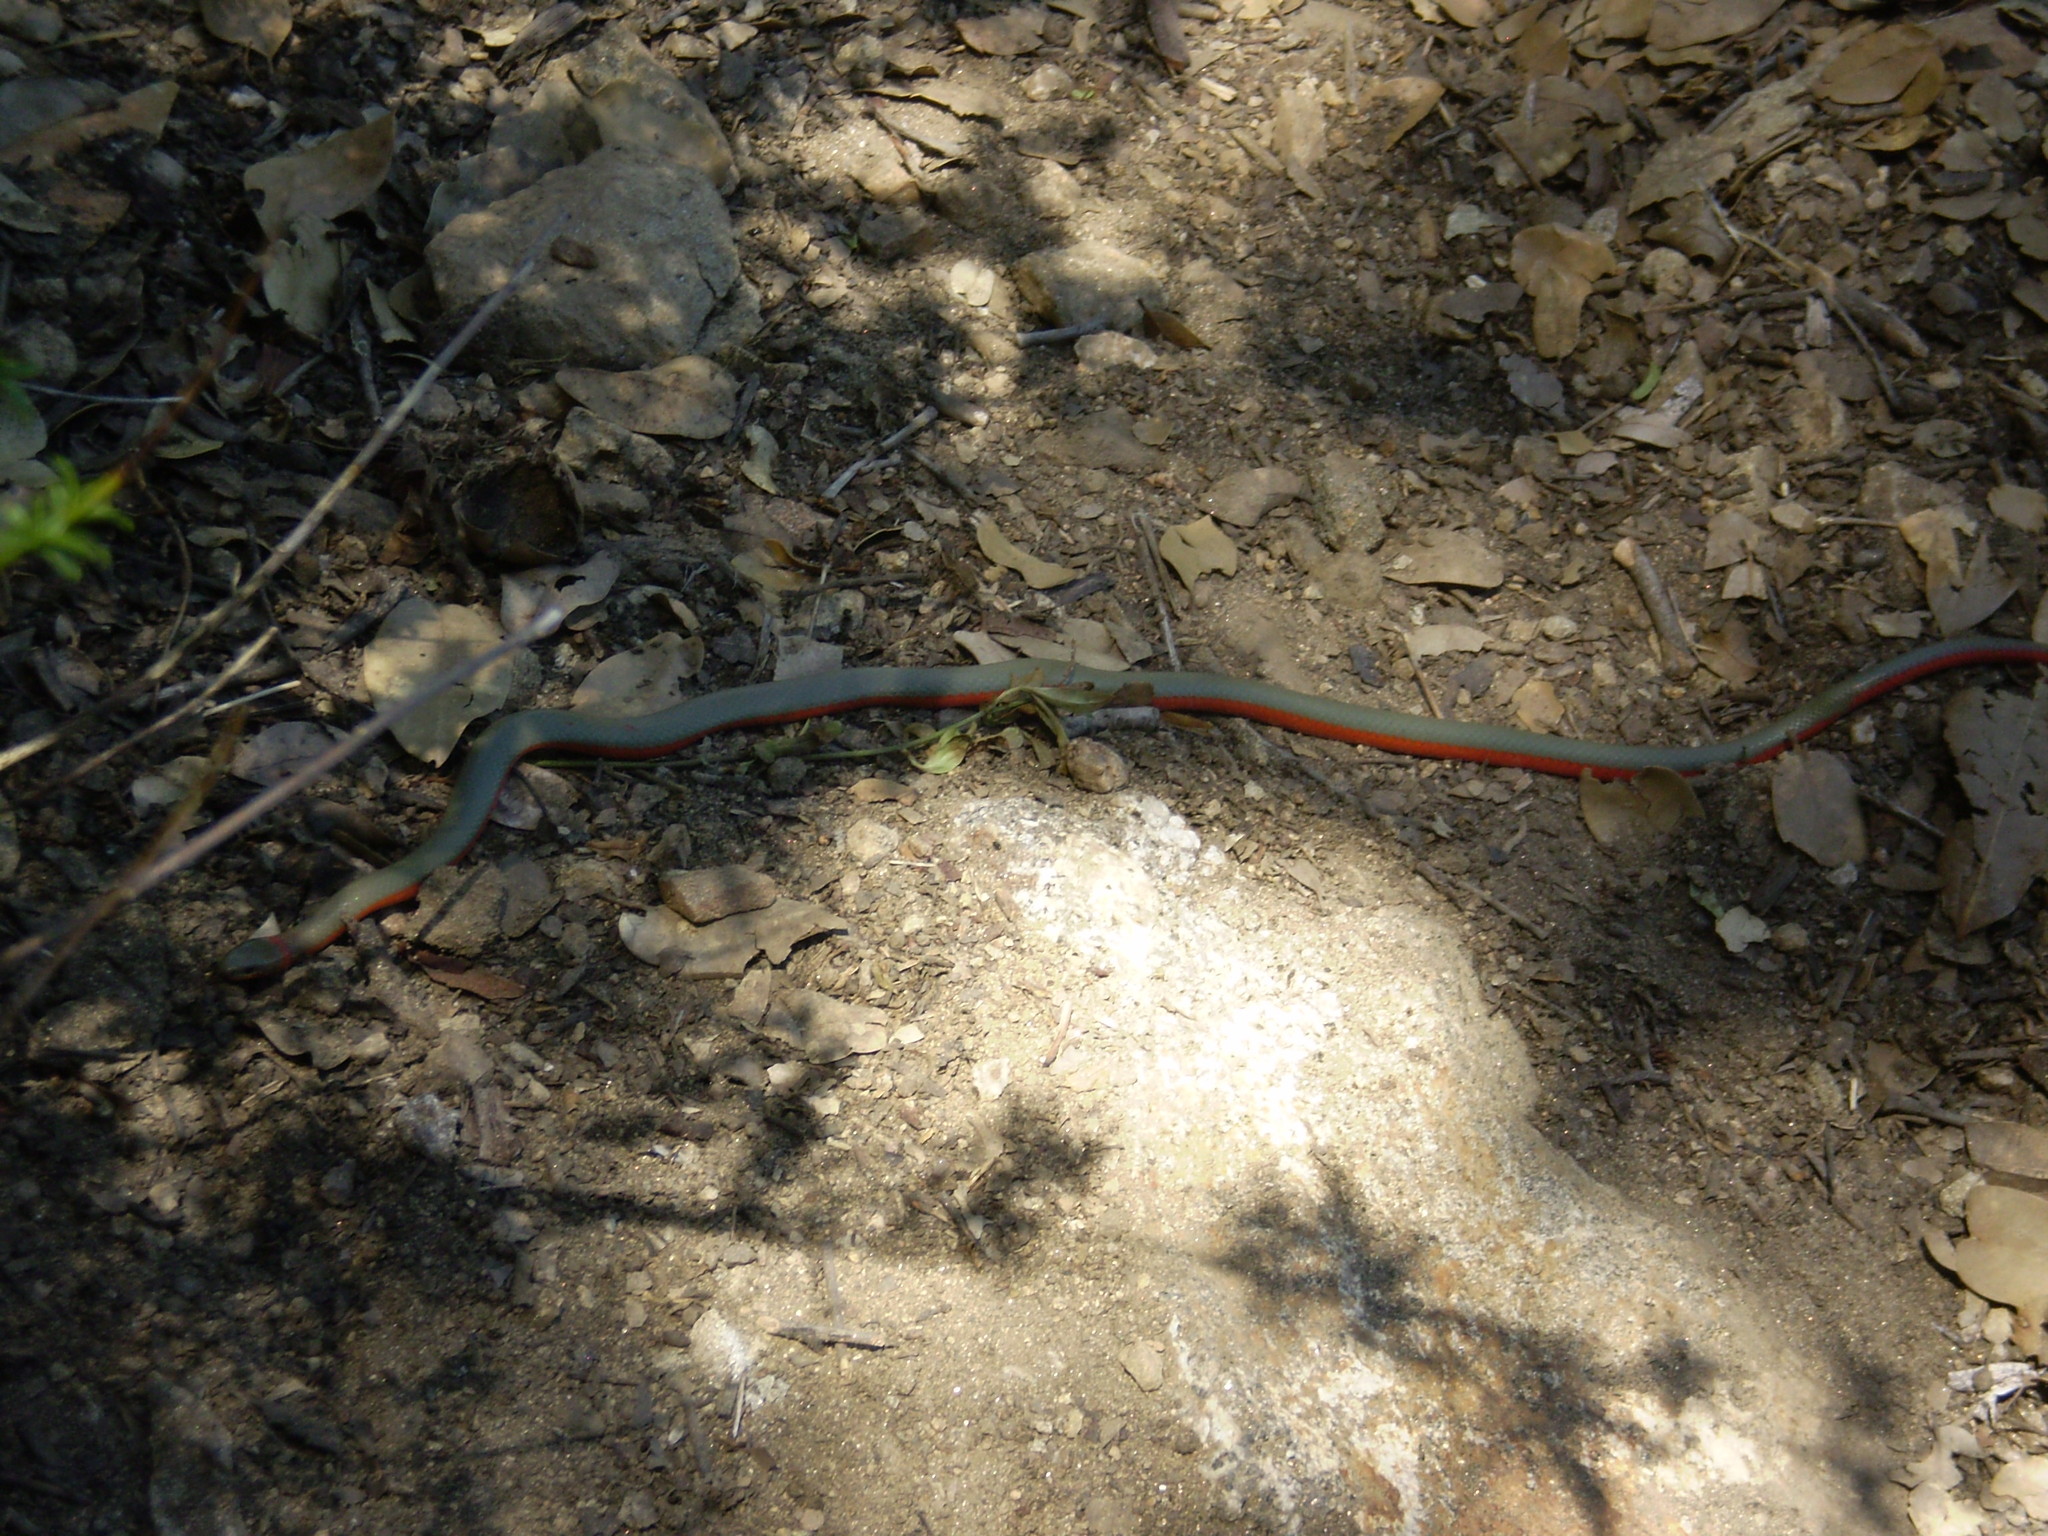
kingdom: Animalia
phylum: Chordata
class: Squamata
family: Colubridae
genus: Diadophis
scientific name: Diadophis punctatus
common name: Ringneck snake
